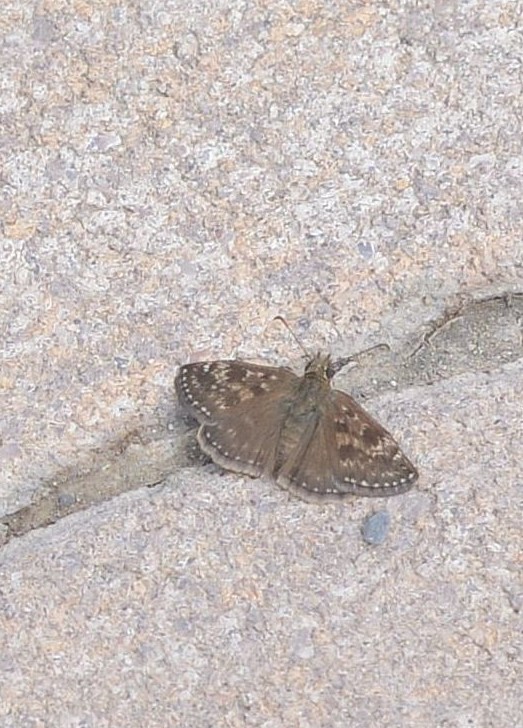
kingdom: Animalia
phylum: Arthropoda
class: Insecta
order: Lepidoptera
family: Hesperiidae
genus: Erynnis
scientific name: Erynnis tages
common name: Dingy skipper
